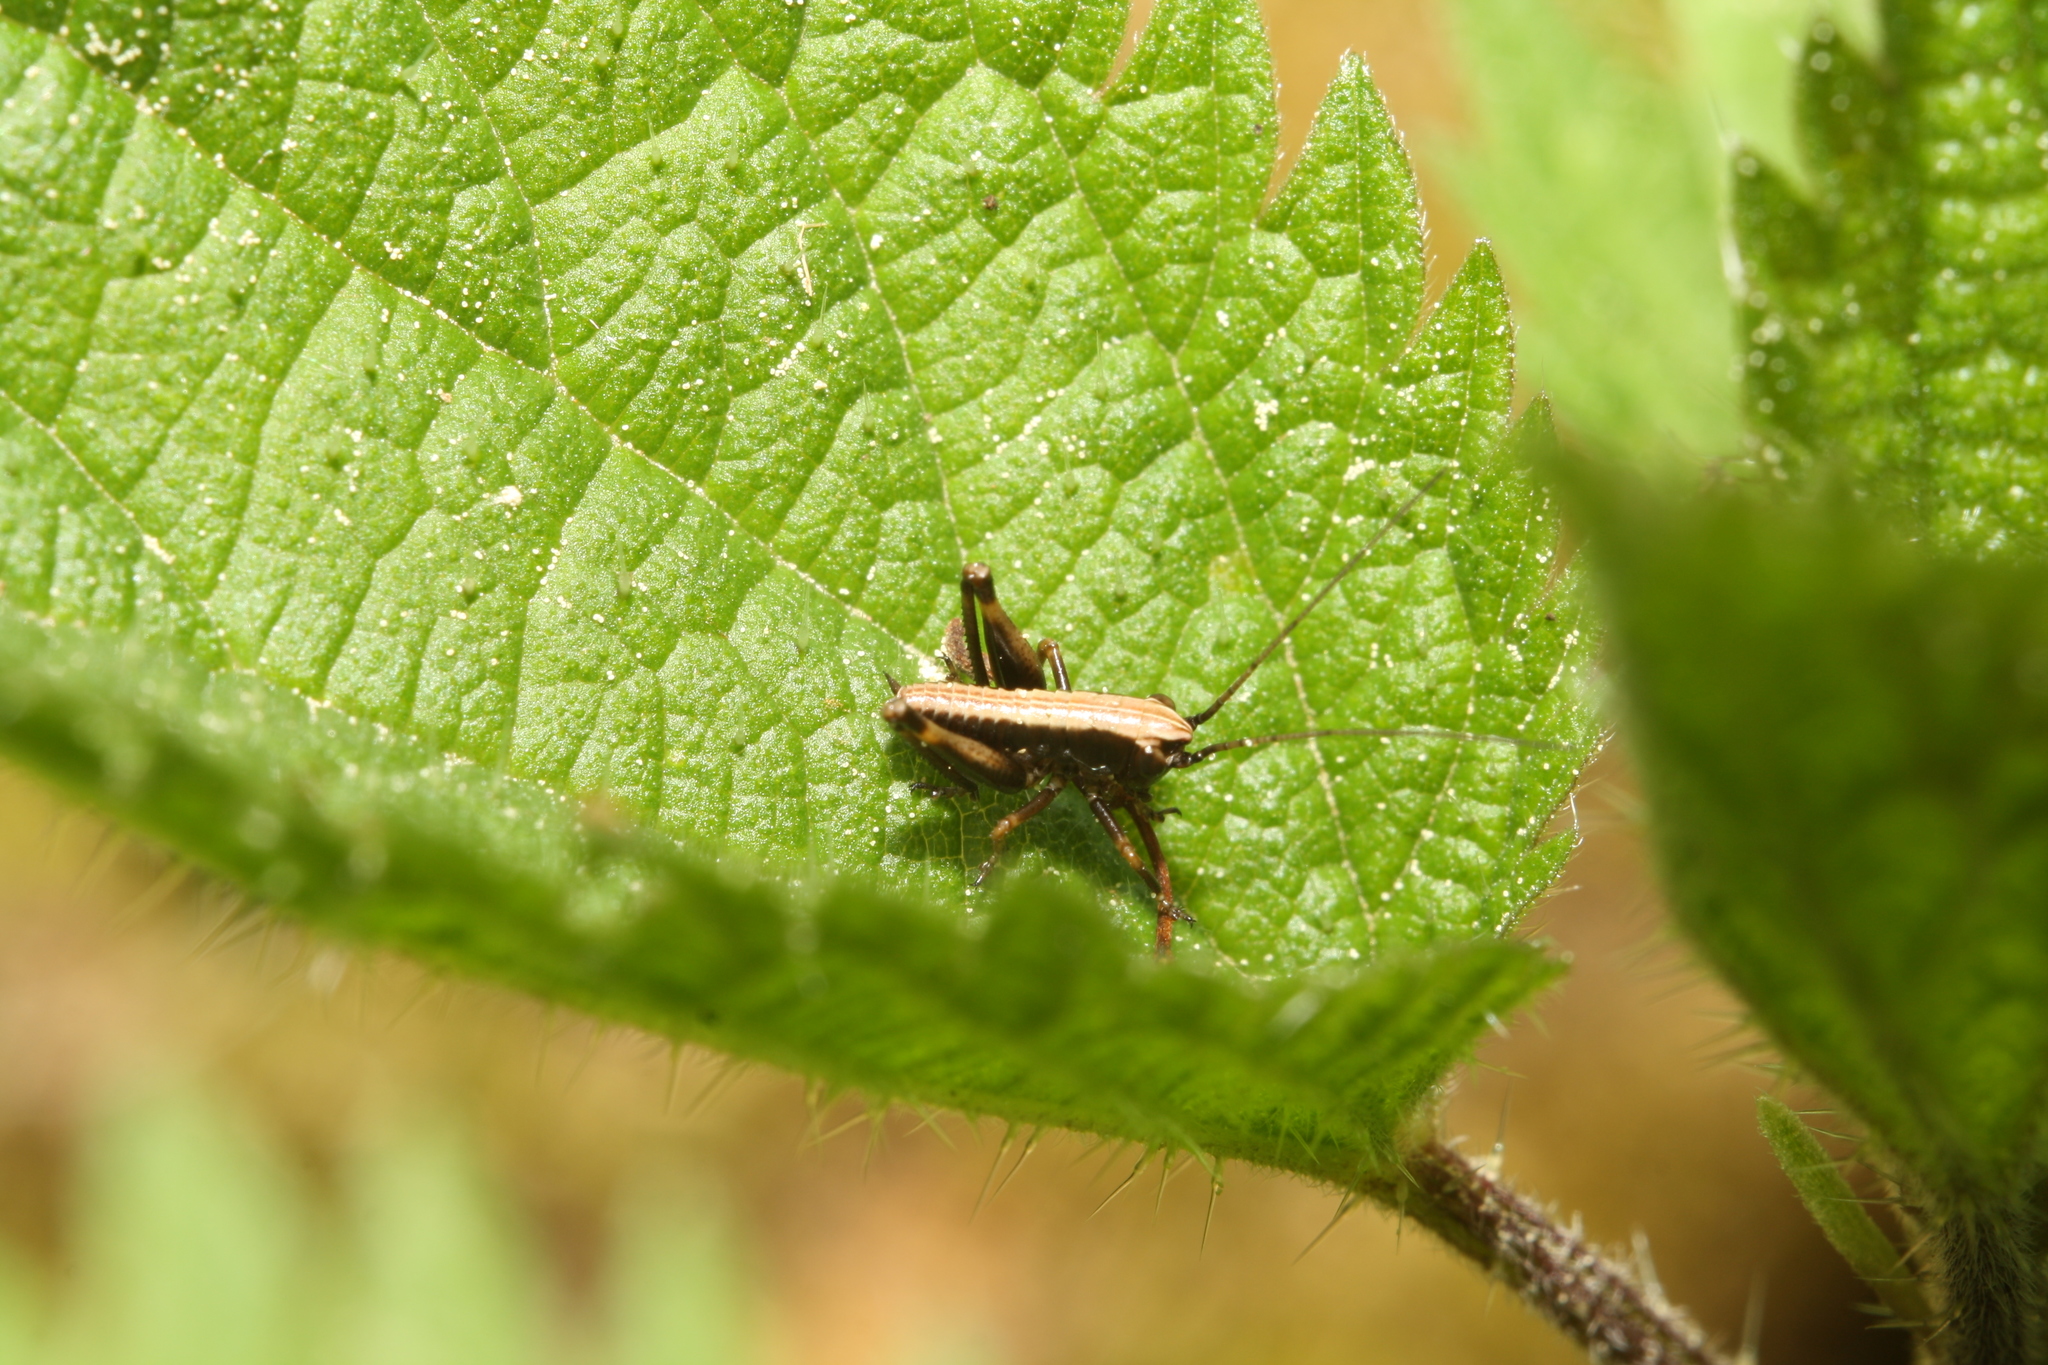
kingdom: Animalia
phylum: Arthropoda
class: Insecta
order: Orthoptera
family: Tettigoniidae
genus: Pholidoptera
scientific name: Pholidoptera griseoaptera
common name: Dark bush-cricket
